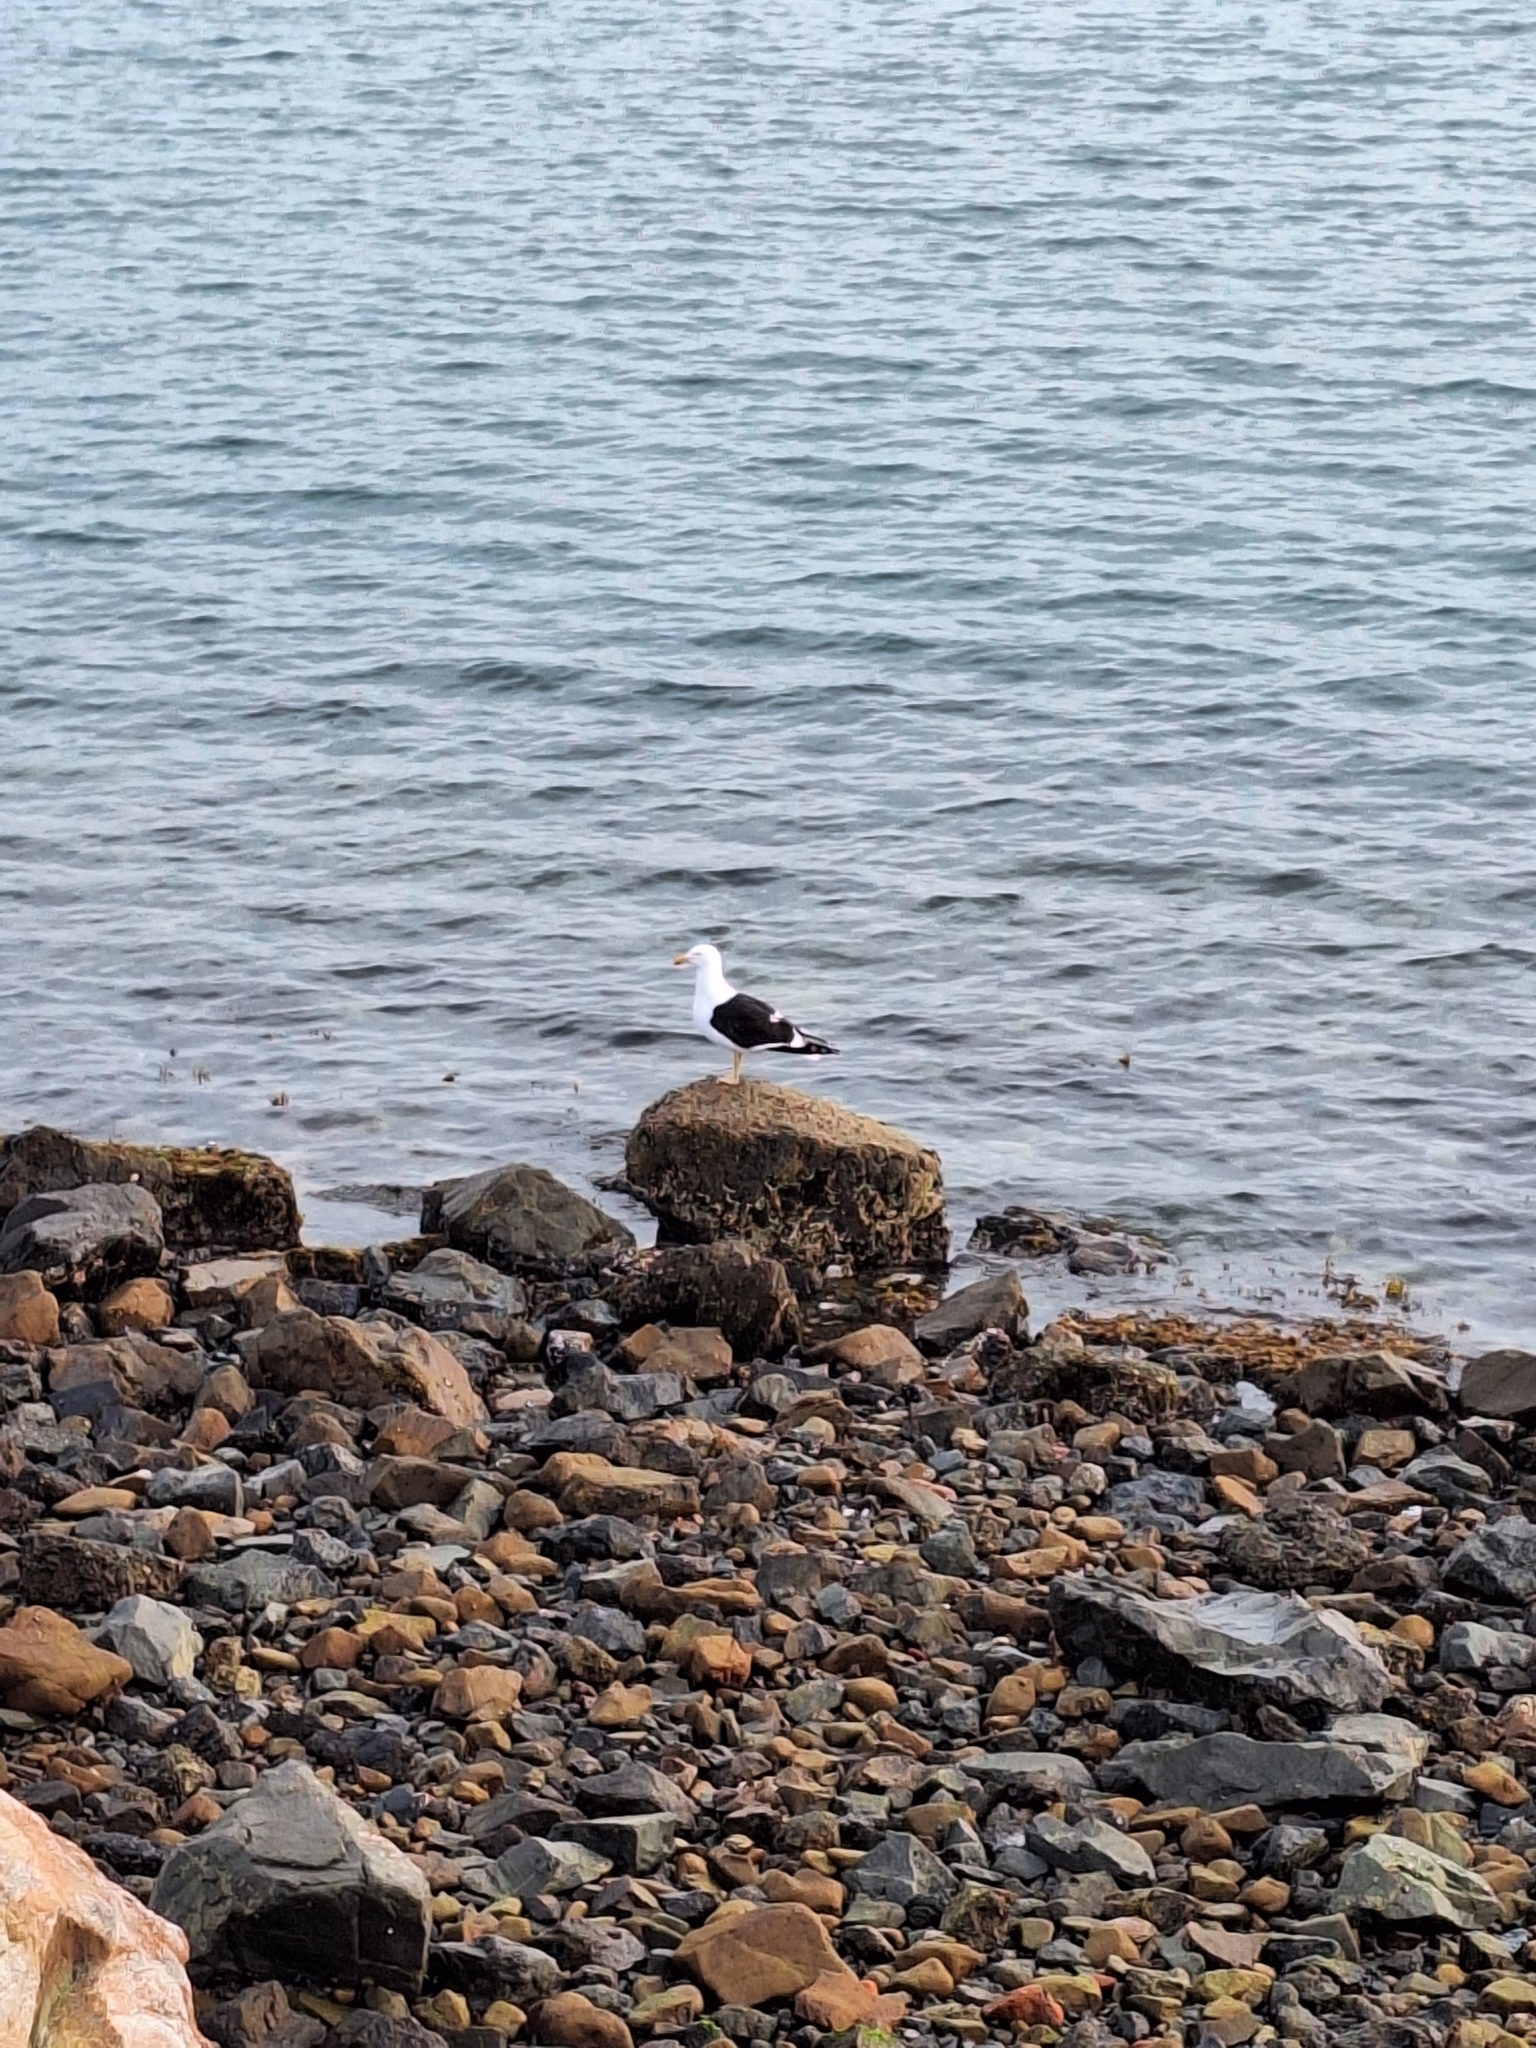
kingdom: Animalia
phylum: Chordata
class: Aves
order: Charadriiformes
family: Laridae
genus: Larus
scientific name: Larus dominicanus
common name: Kelp gull
